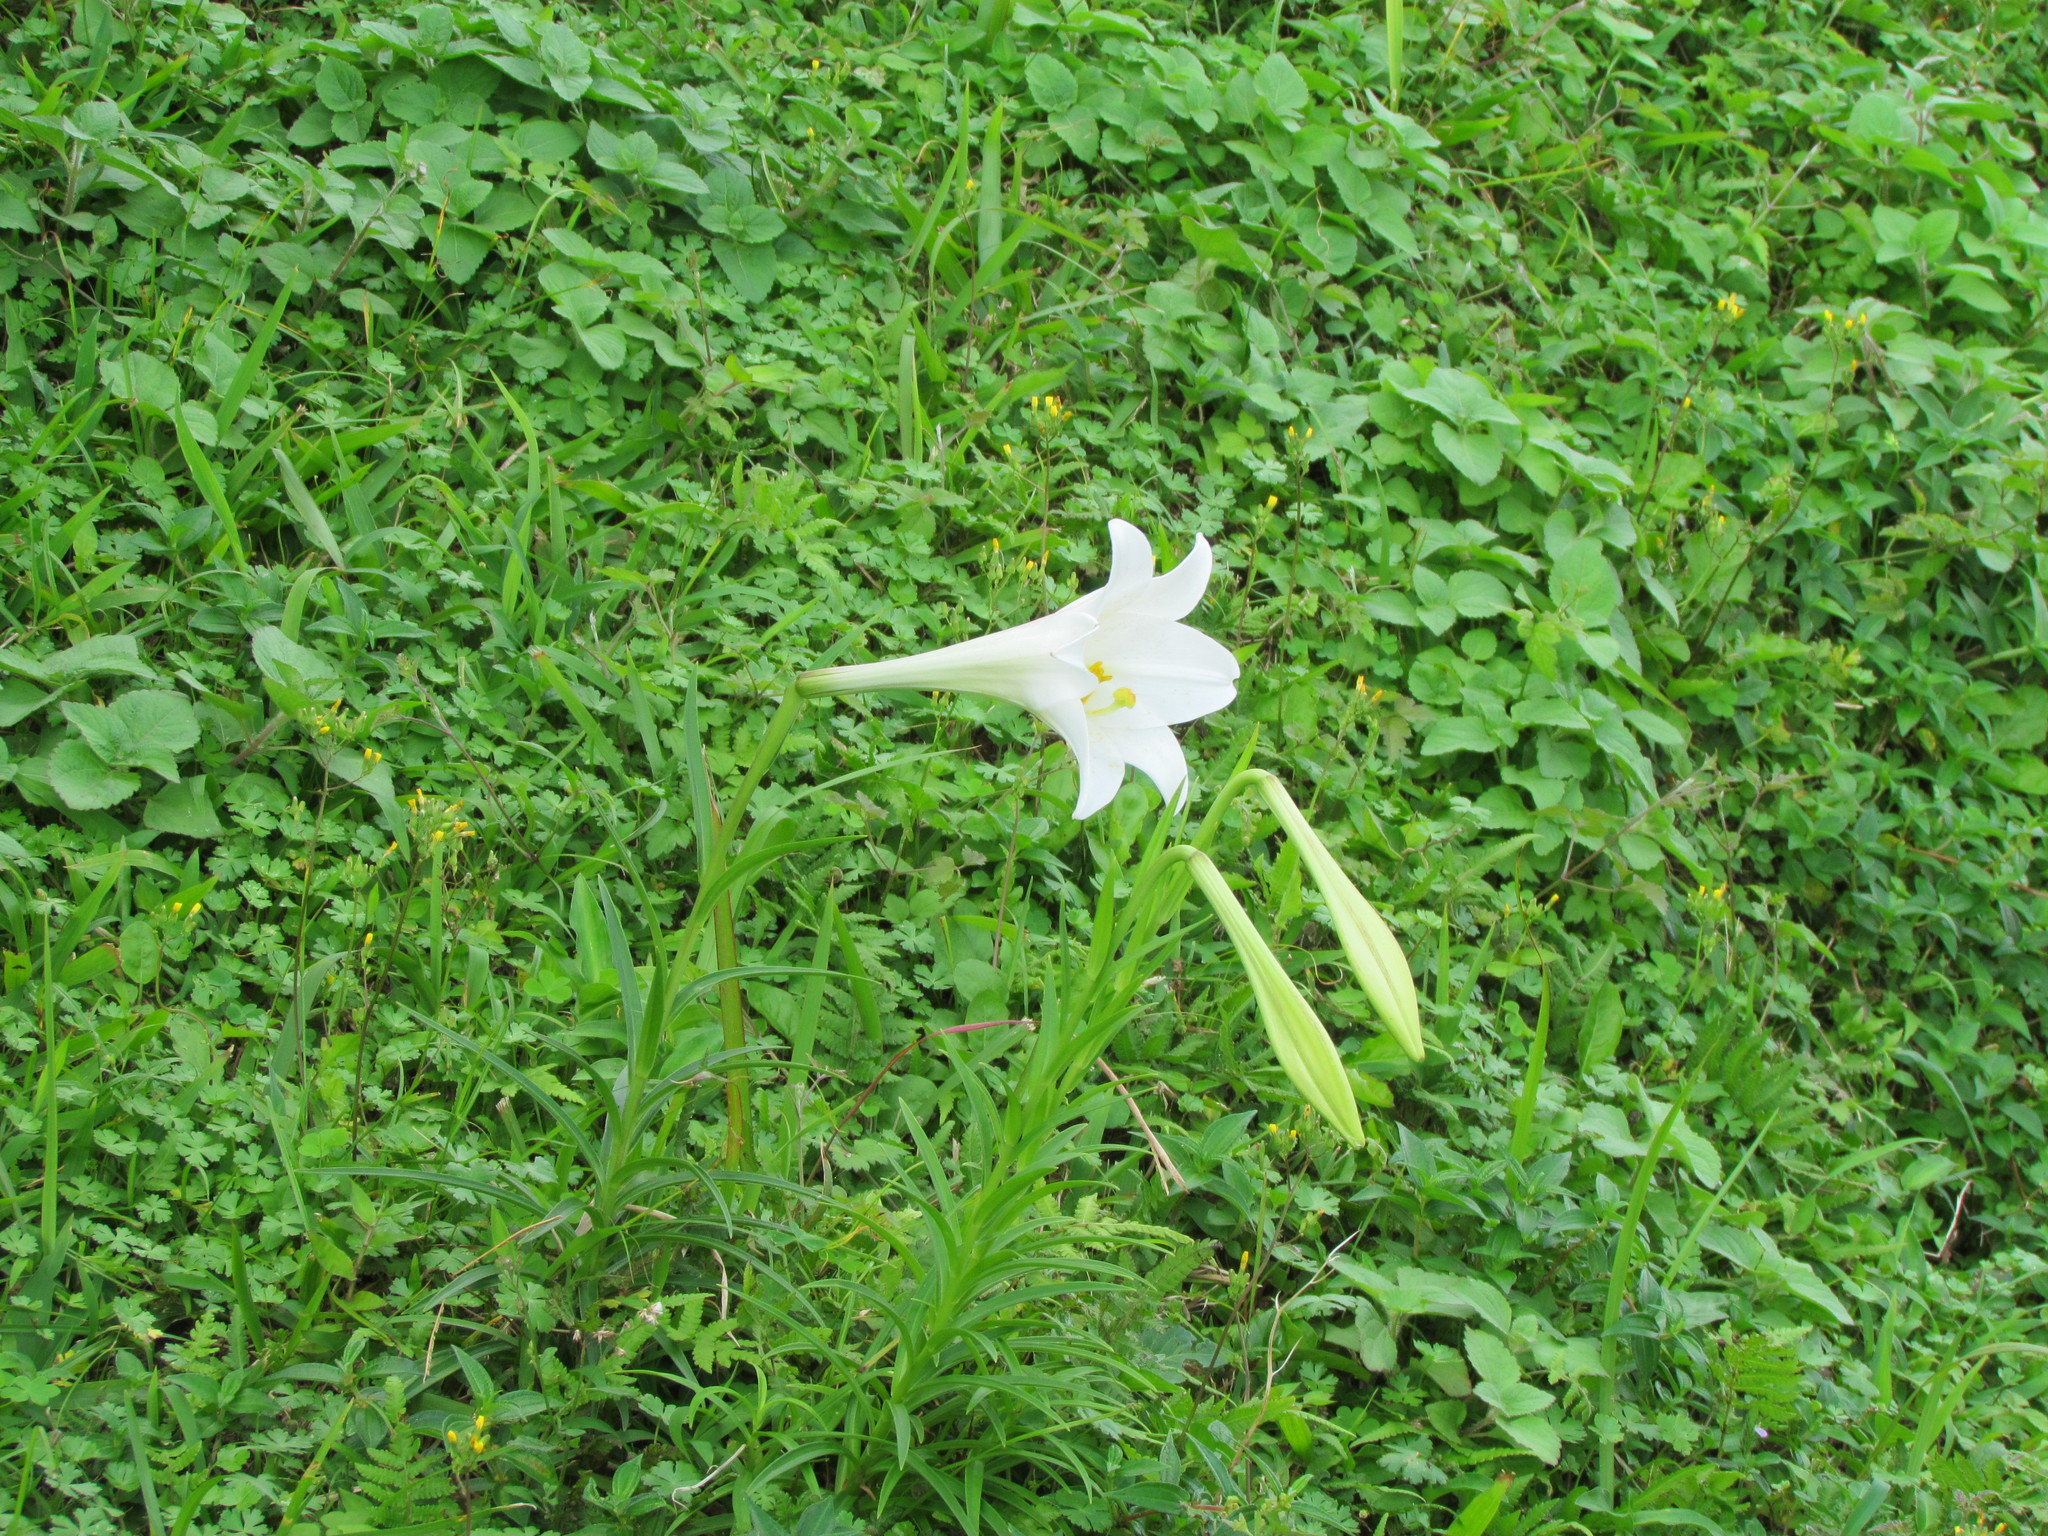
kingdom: Plantae
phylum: Tracheophyta
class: Liliopsida
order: Liliales
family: Liliaceae
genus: Lilium
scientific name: Lilium formosanum
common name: Formosa lily
